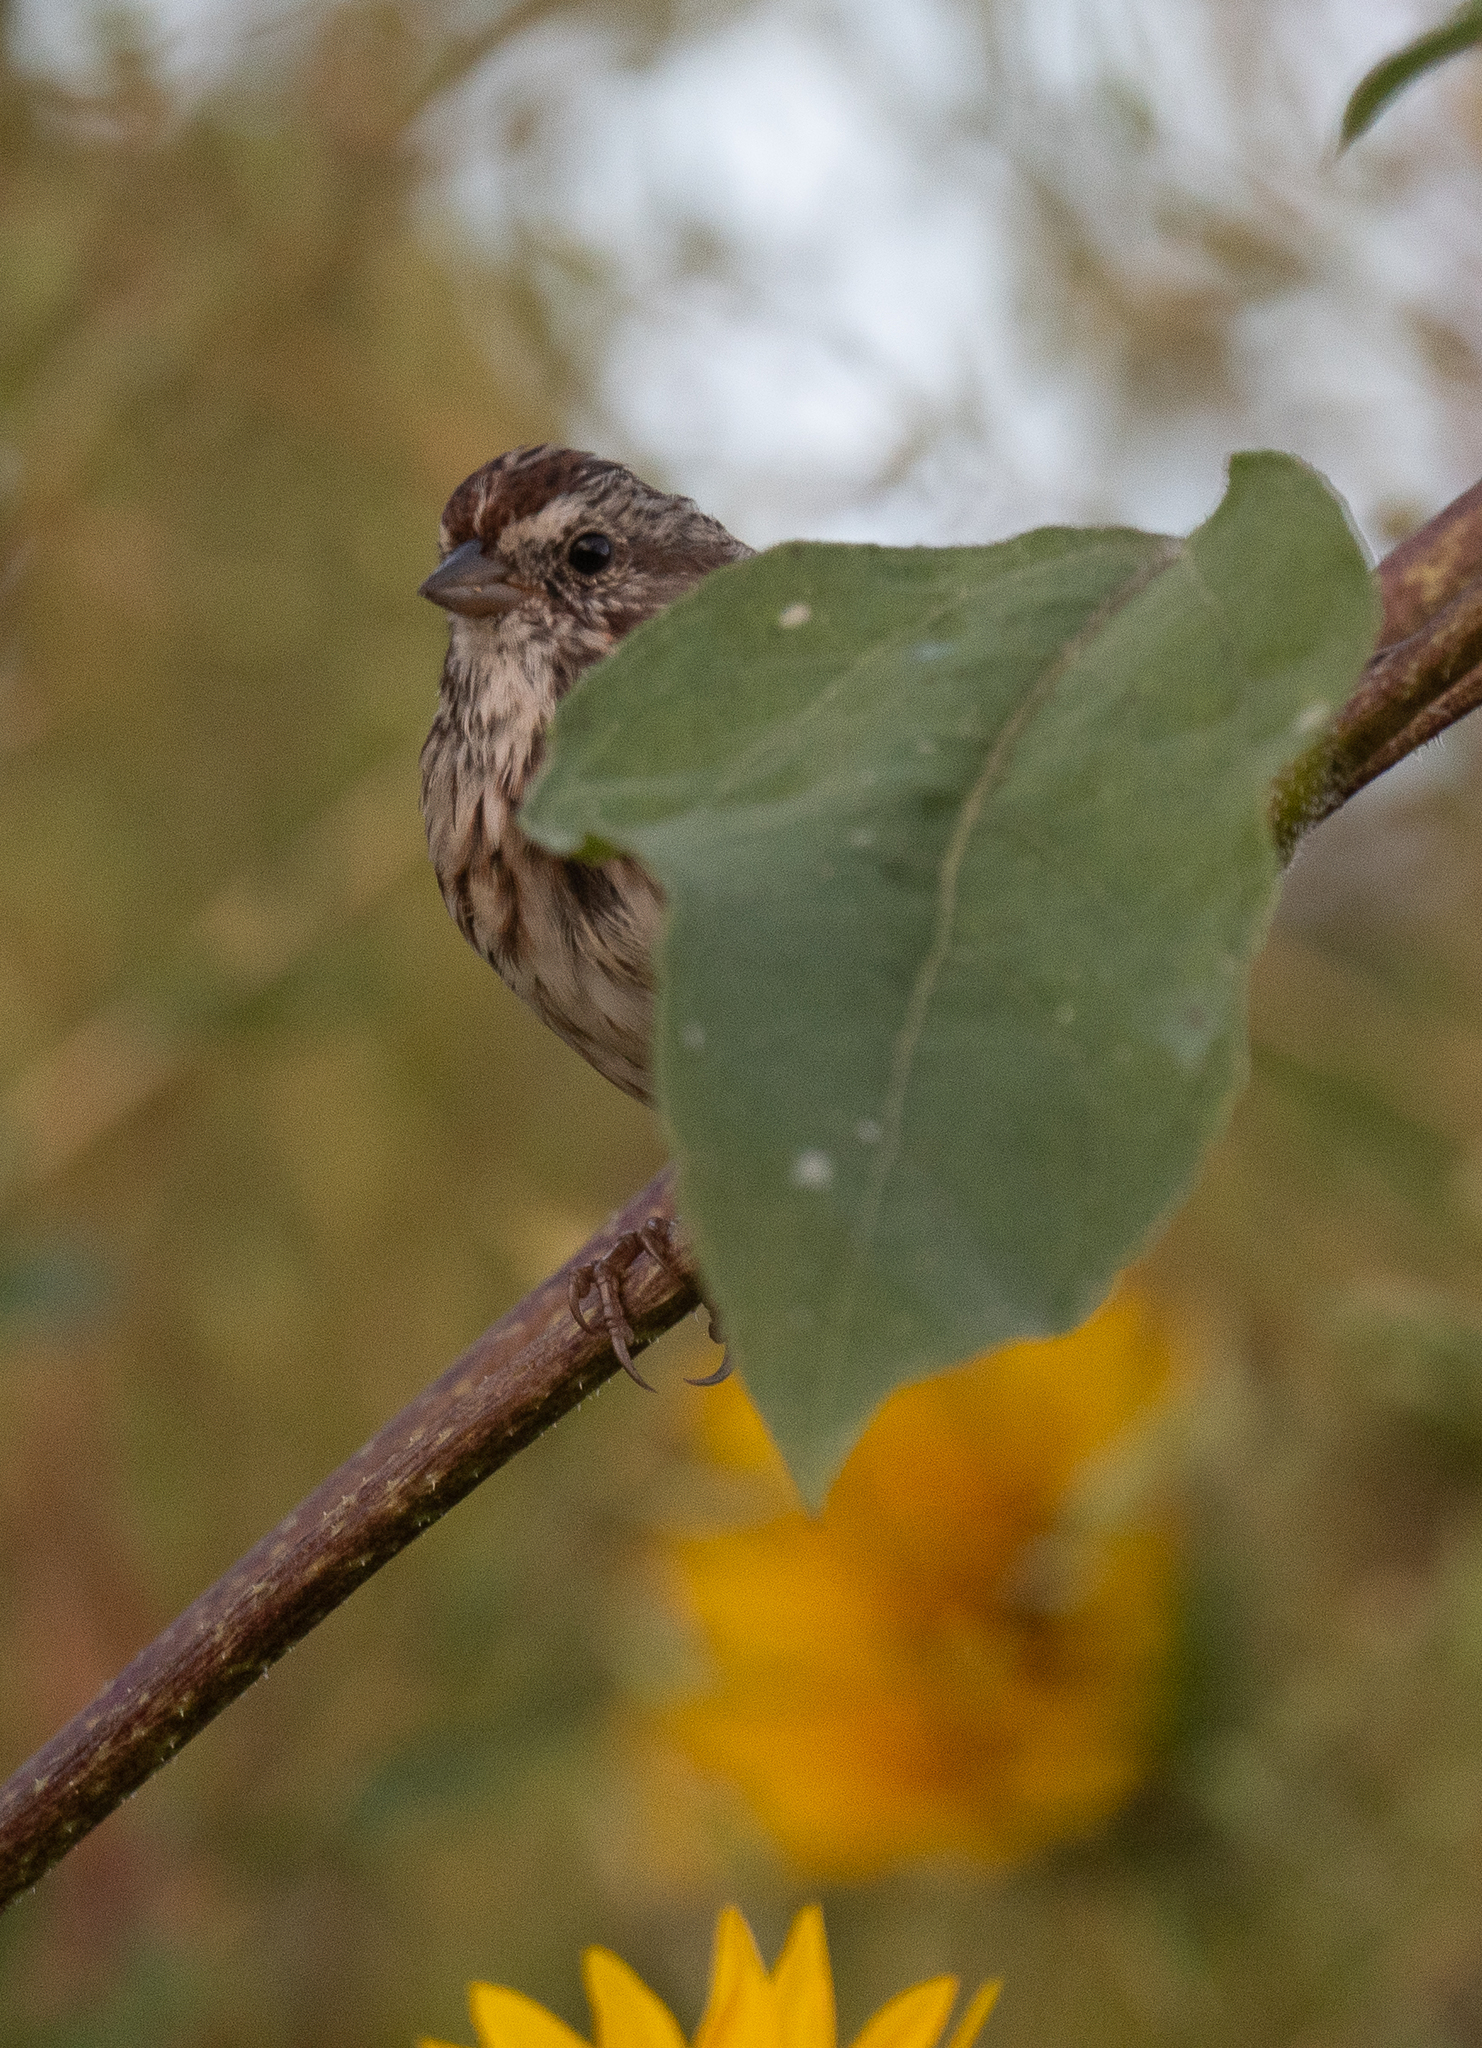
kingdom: Animalia
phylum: Chordata
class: Aves
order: Passeriformes
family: Passerellidae
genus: Melospiza
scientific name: Melospiza melodia
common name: Song sparrow
